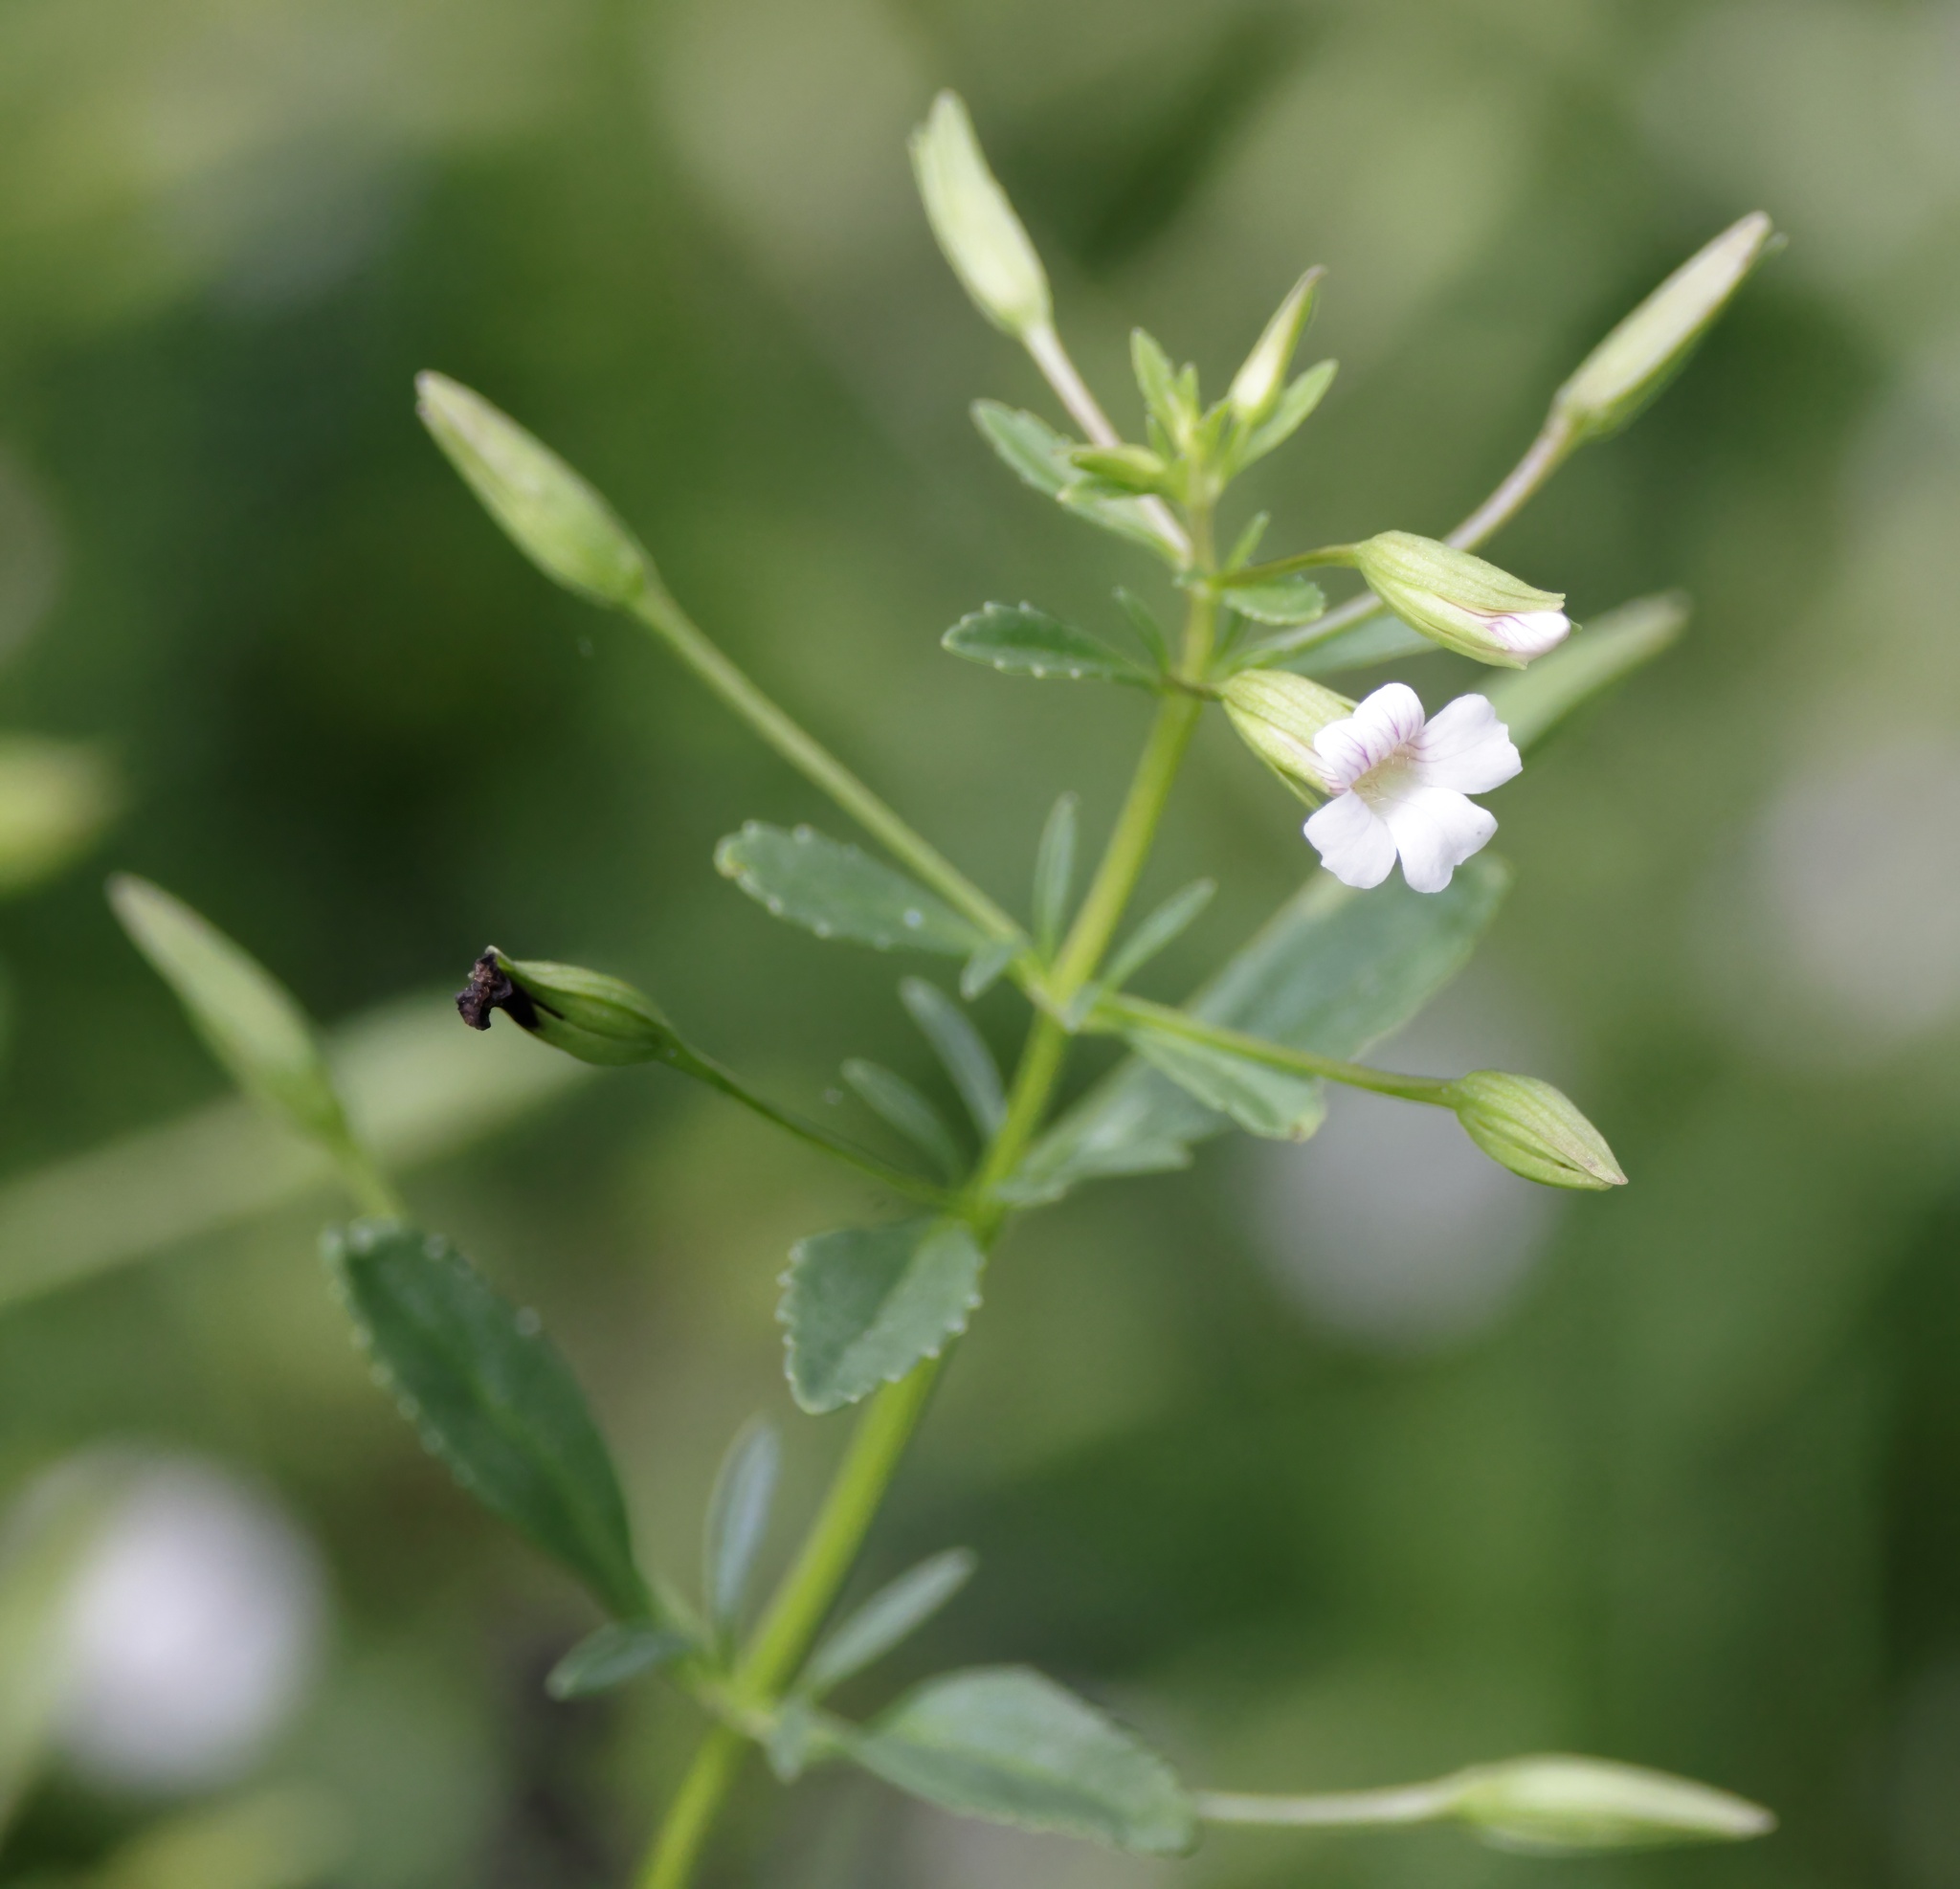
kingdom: Plantae
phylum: Tracheophyta
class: Magnoliopsida
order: Lamiales
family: Plantaginaceae
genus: Mecardonia
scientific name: Mecardonia acuminata
